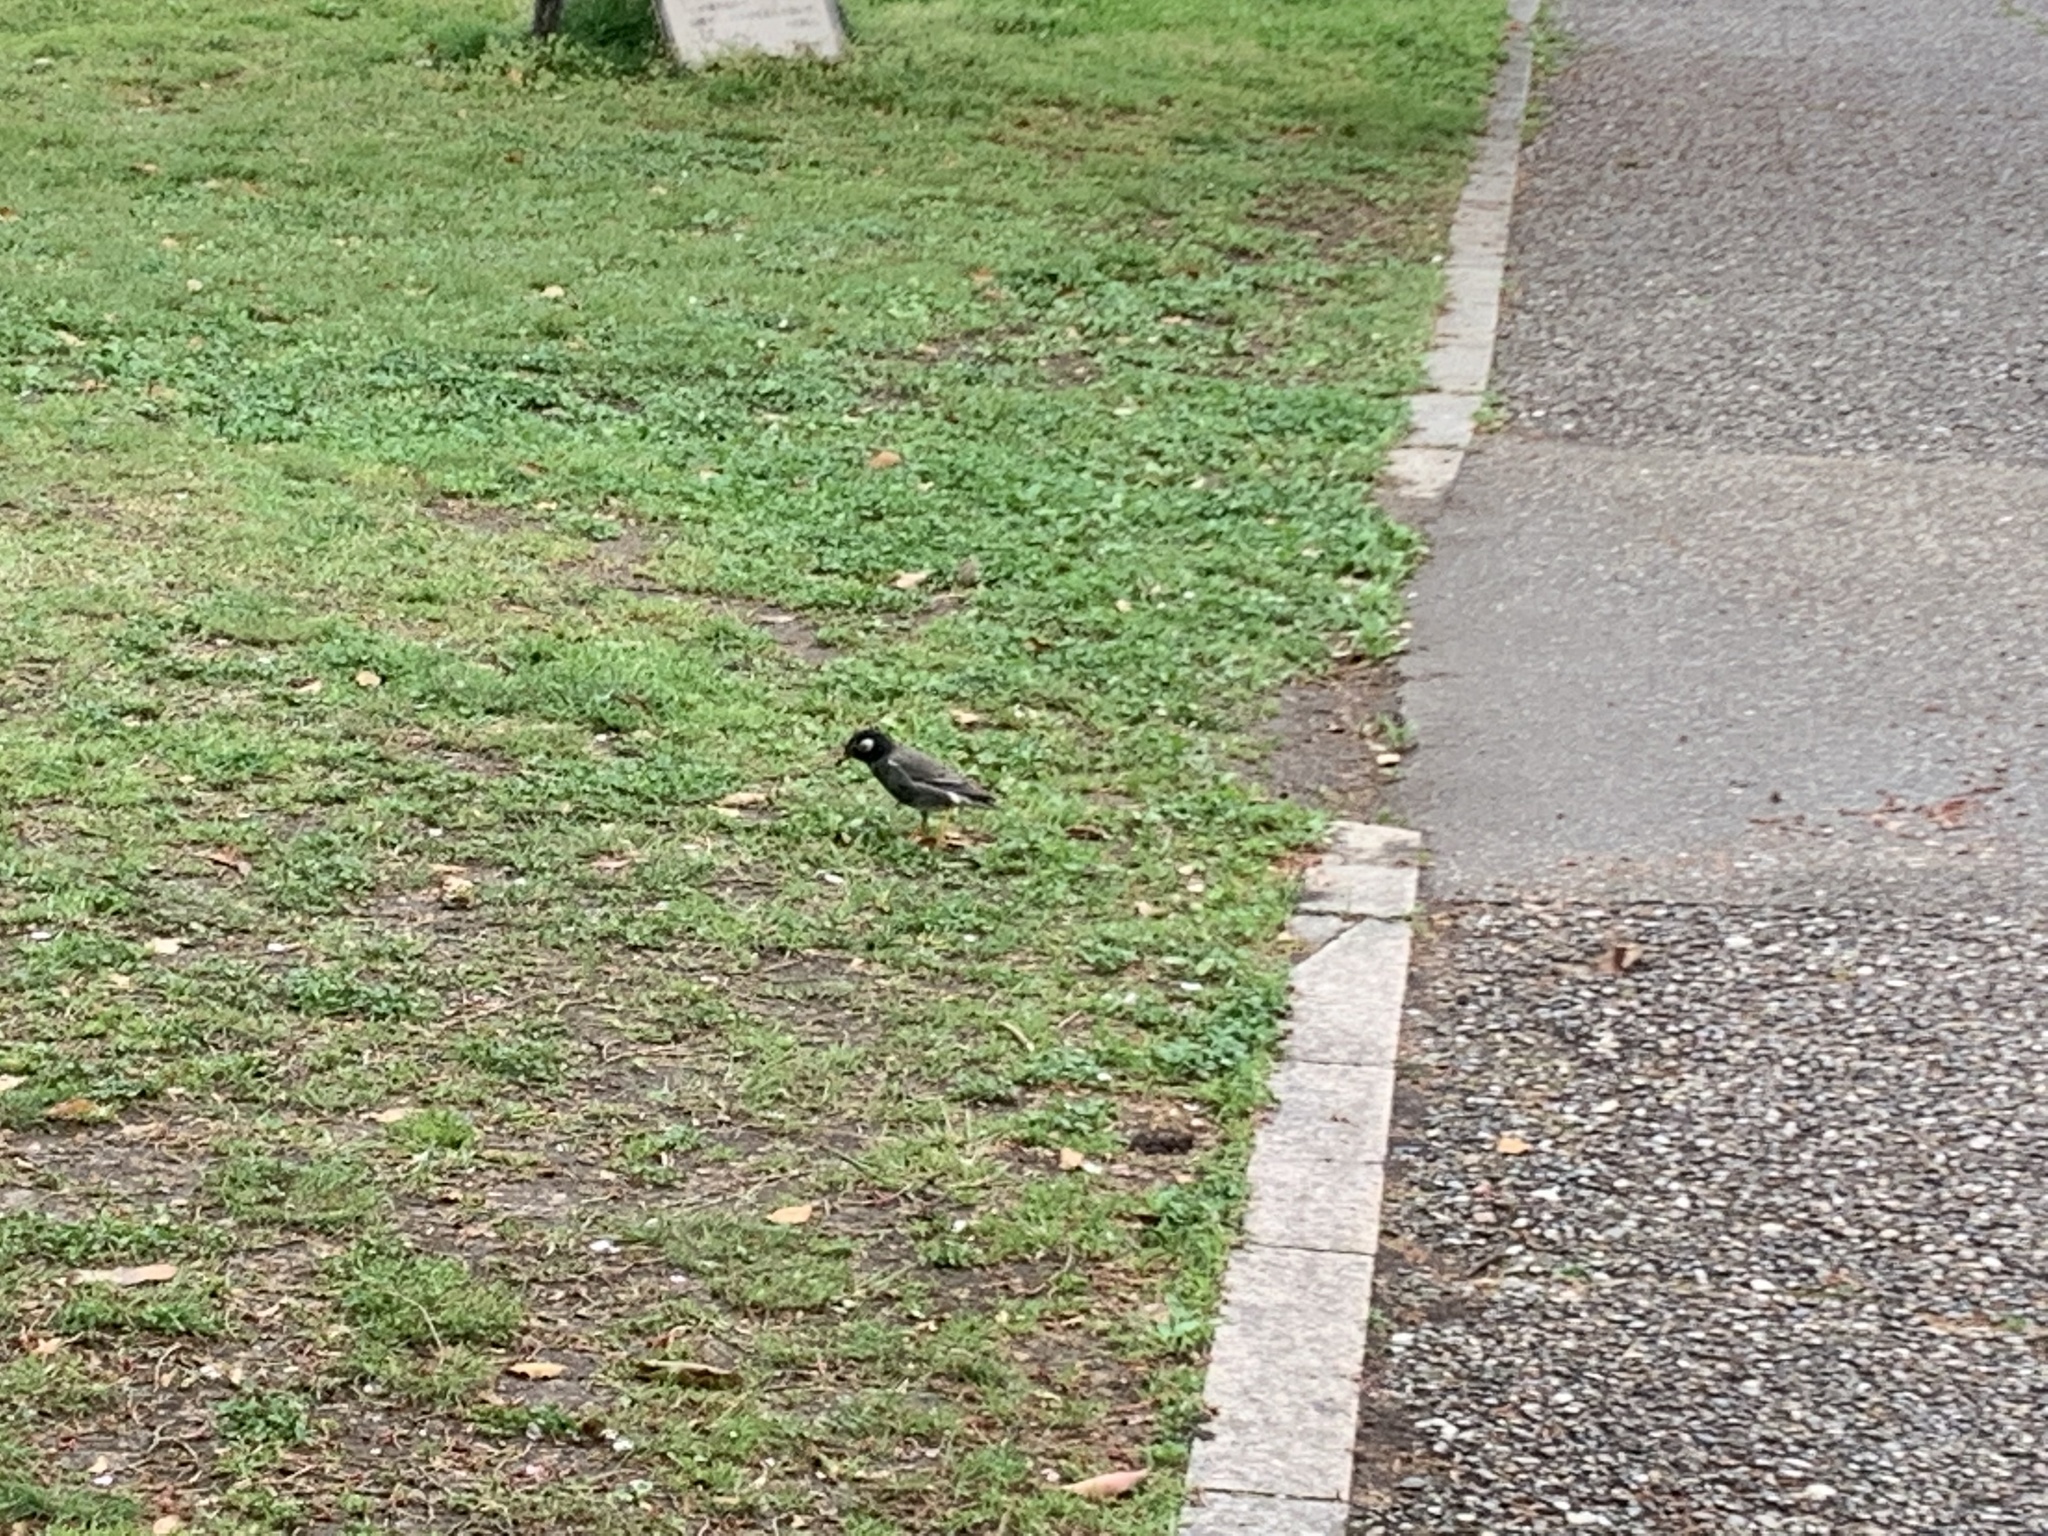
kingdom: Animalia
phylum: Chordata
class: Aves
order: Passeriformes
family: Sturnidae
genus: Spodiopsar
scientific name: Spodiopsar cineraceus
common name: White-cheeked starling
